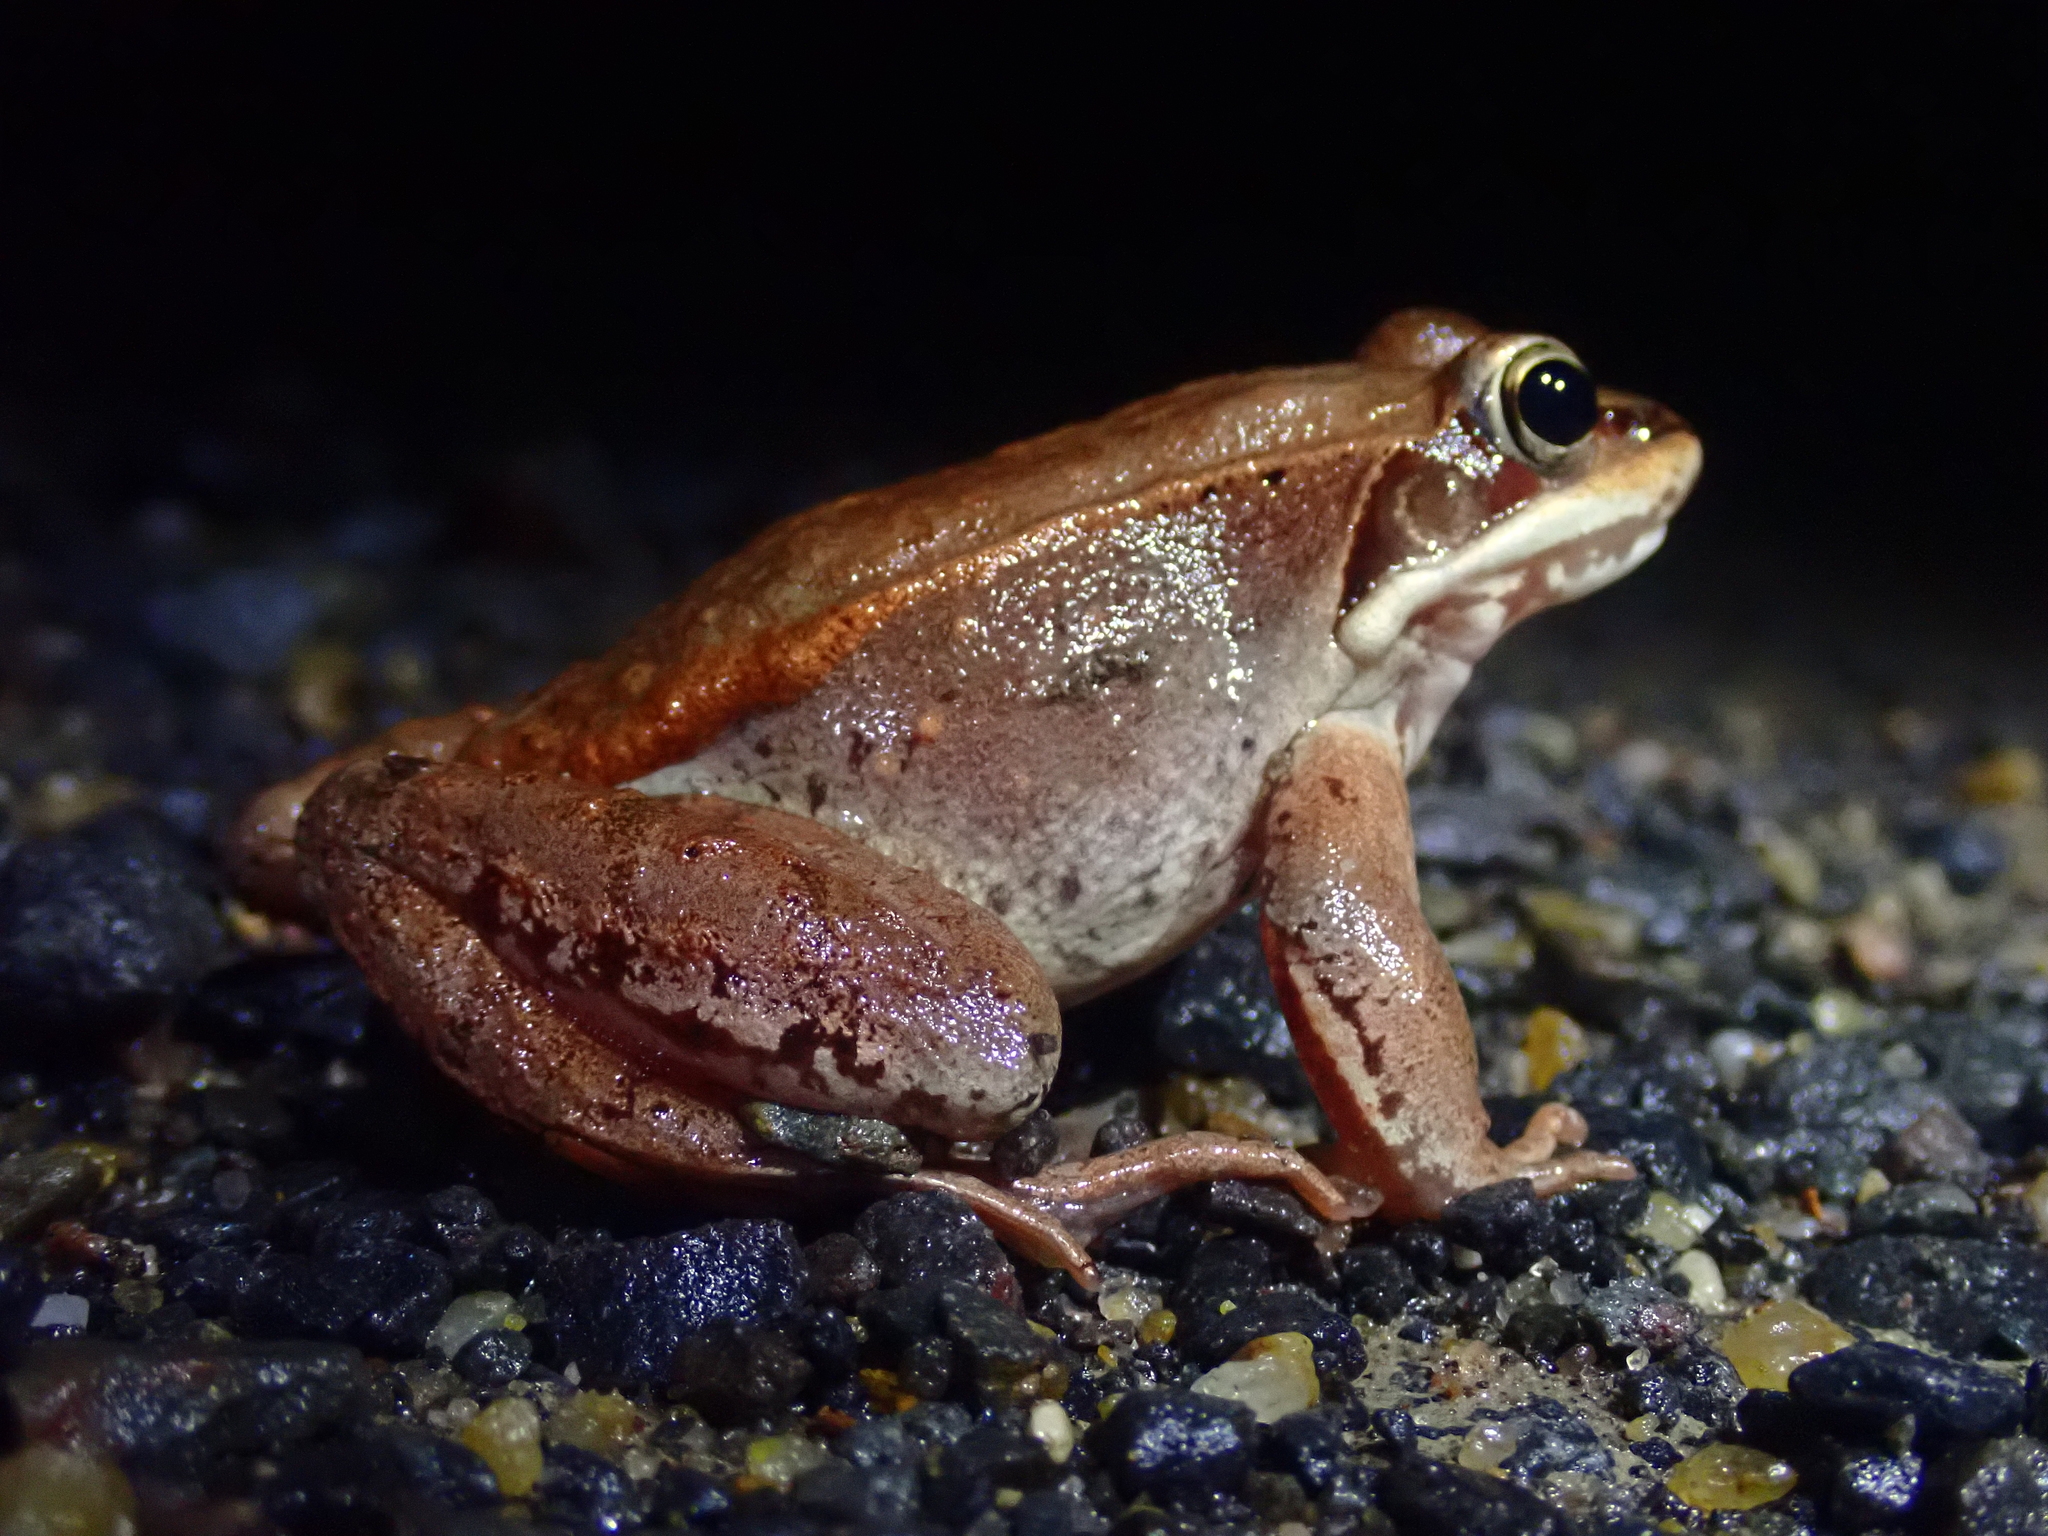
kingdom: Animalia
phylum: Chordata
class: Amphibia
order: Anura
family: Ranidae
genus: Lithobates
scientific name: Lithobates sylvaticus
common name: Wood frog
